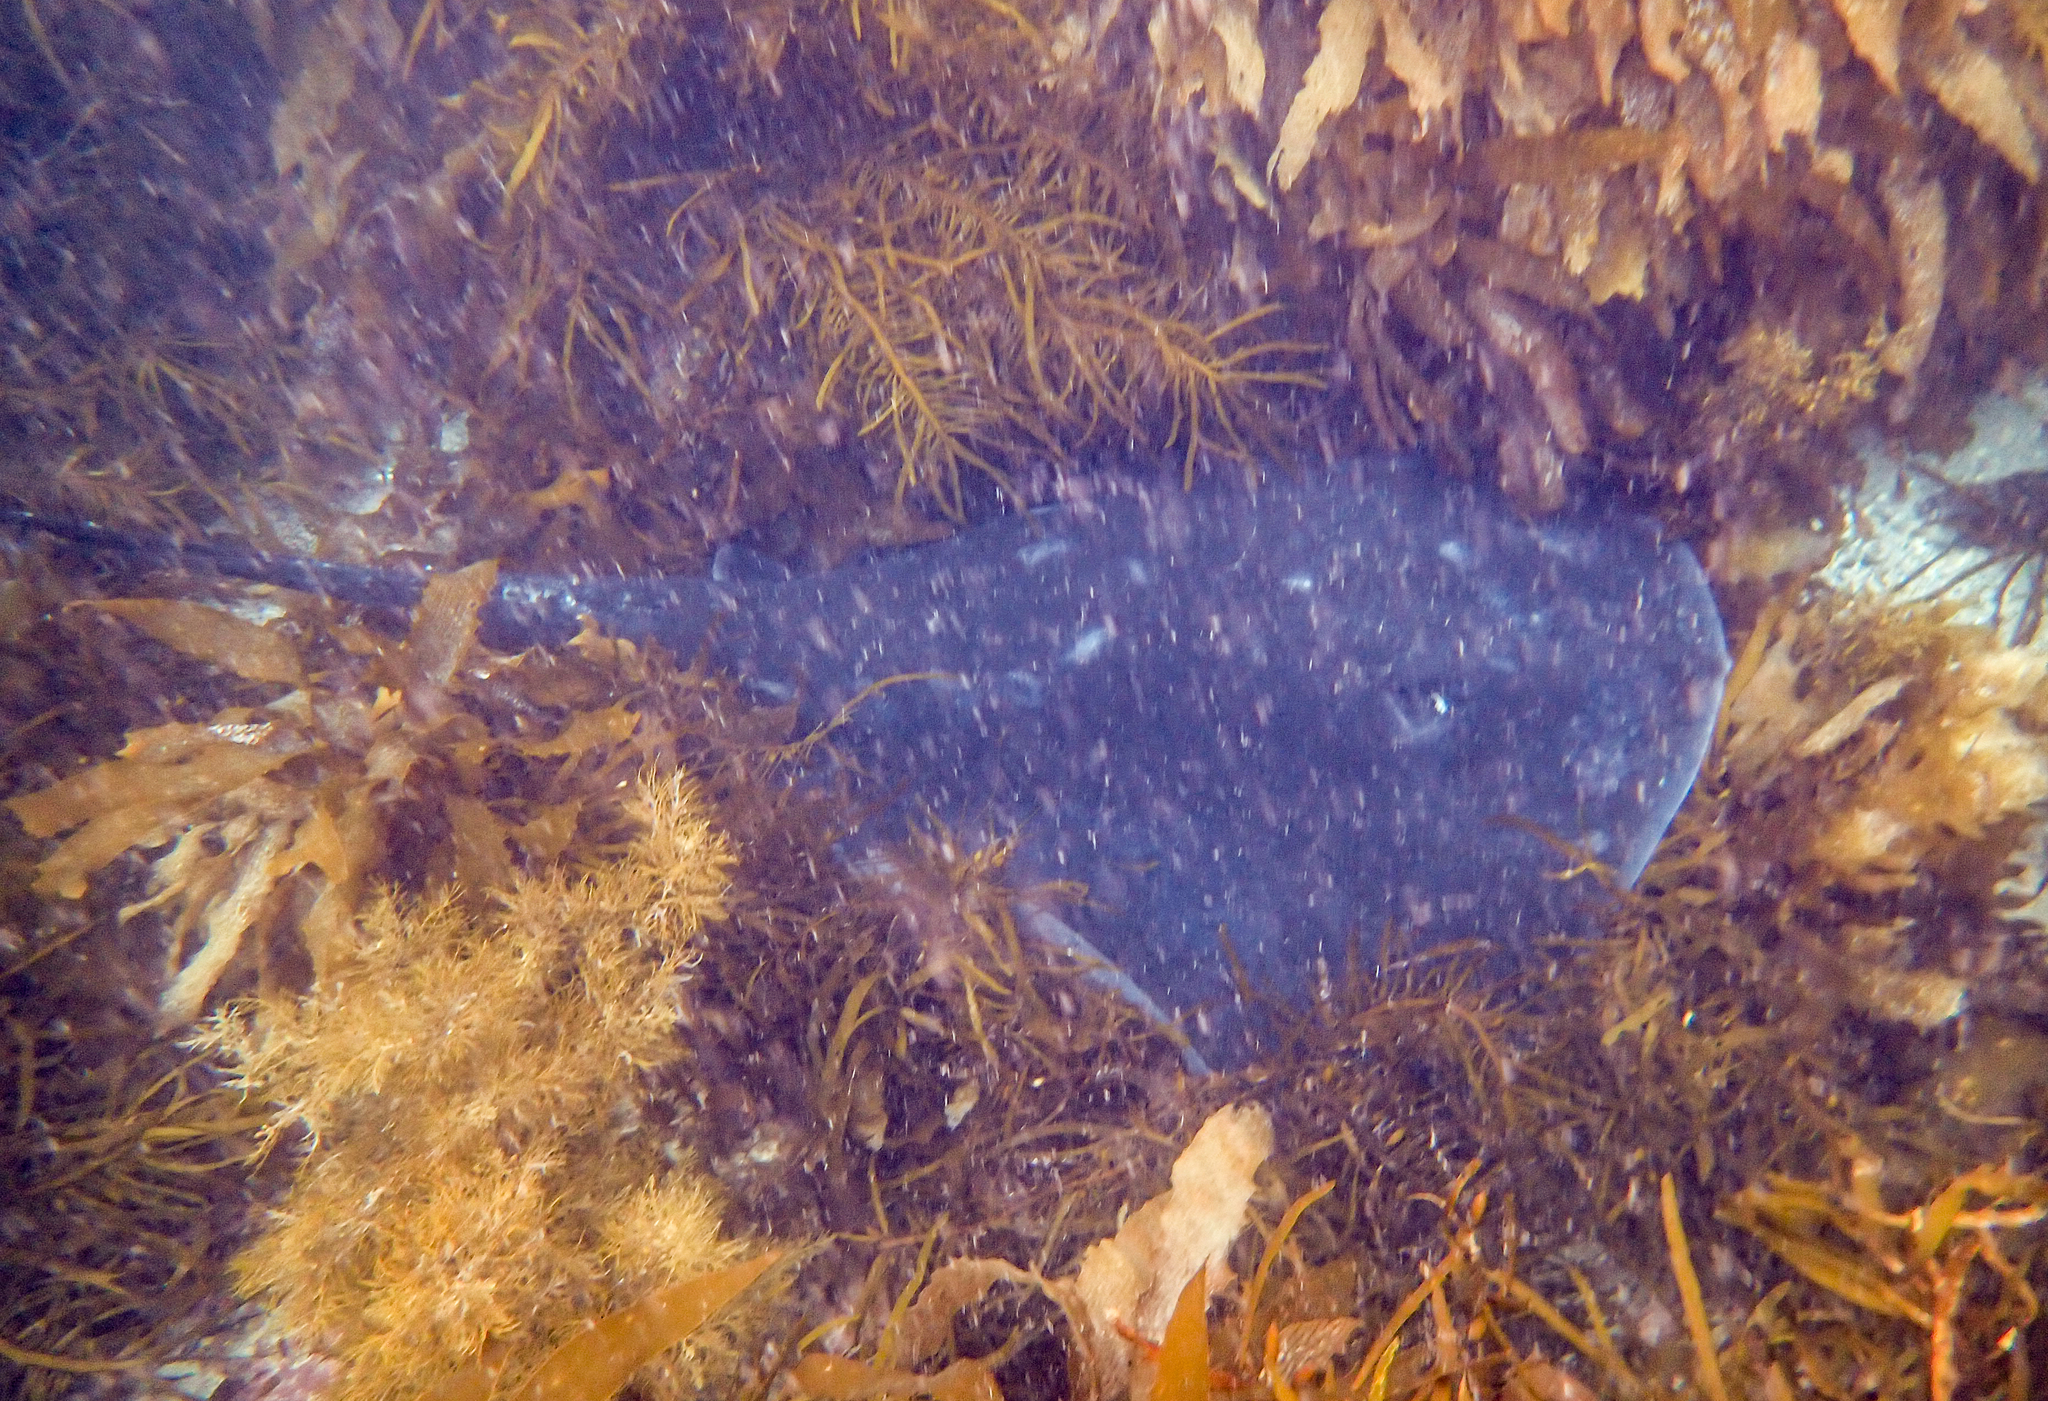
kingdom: Animalia
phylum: Chordata
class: Elasmobranchii
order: Myliobatiformes
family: Dasyatidae
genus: Bathytoshia
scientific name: Bathytoshia brevicaudata
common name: Short-tail stingray
